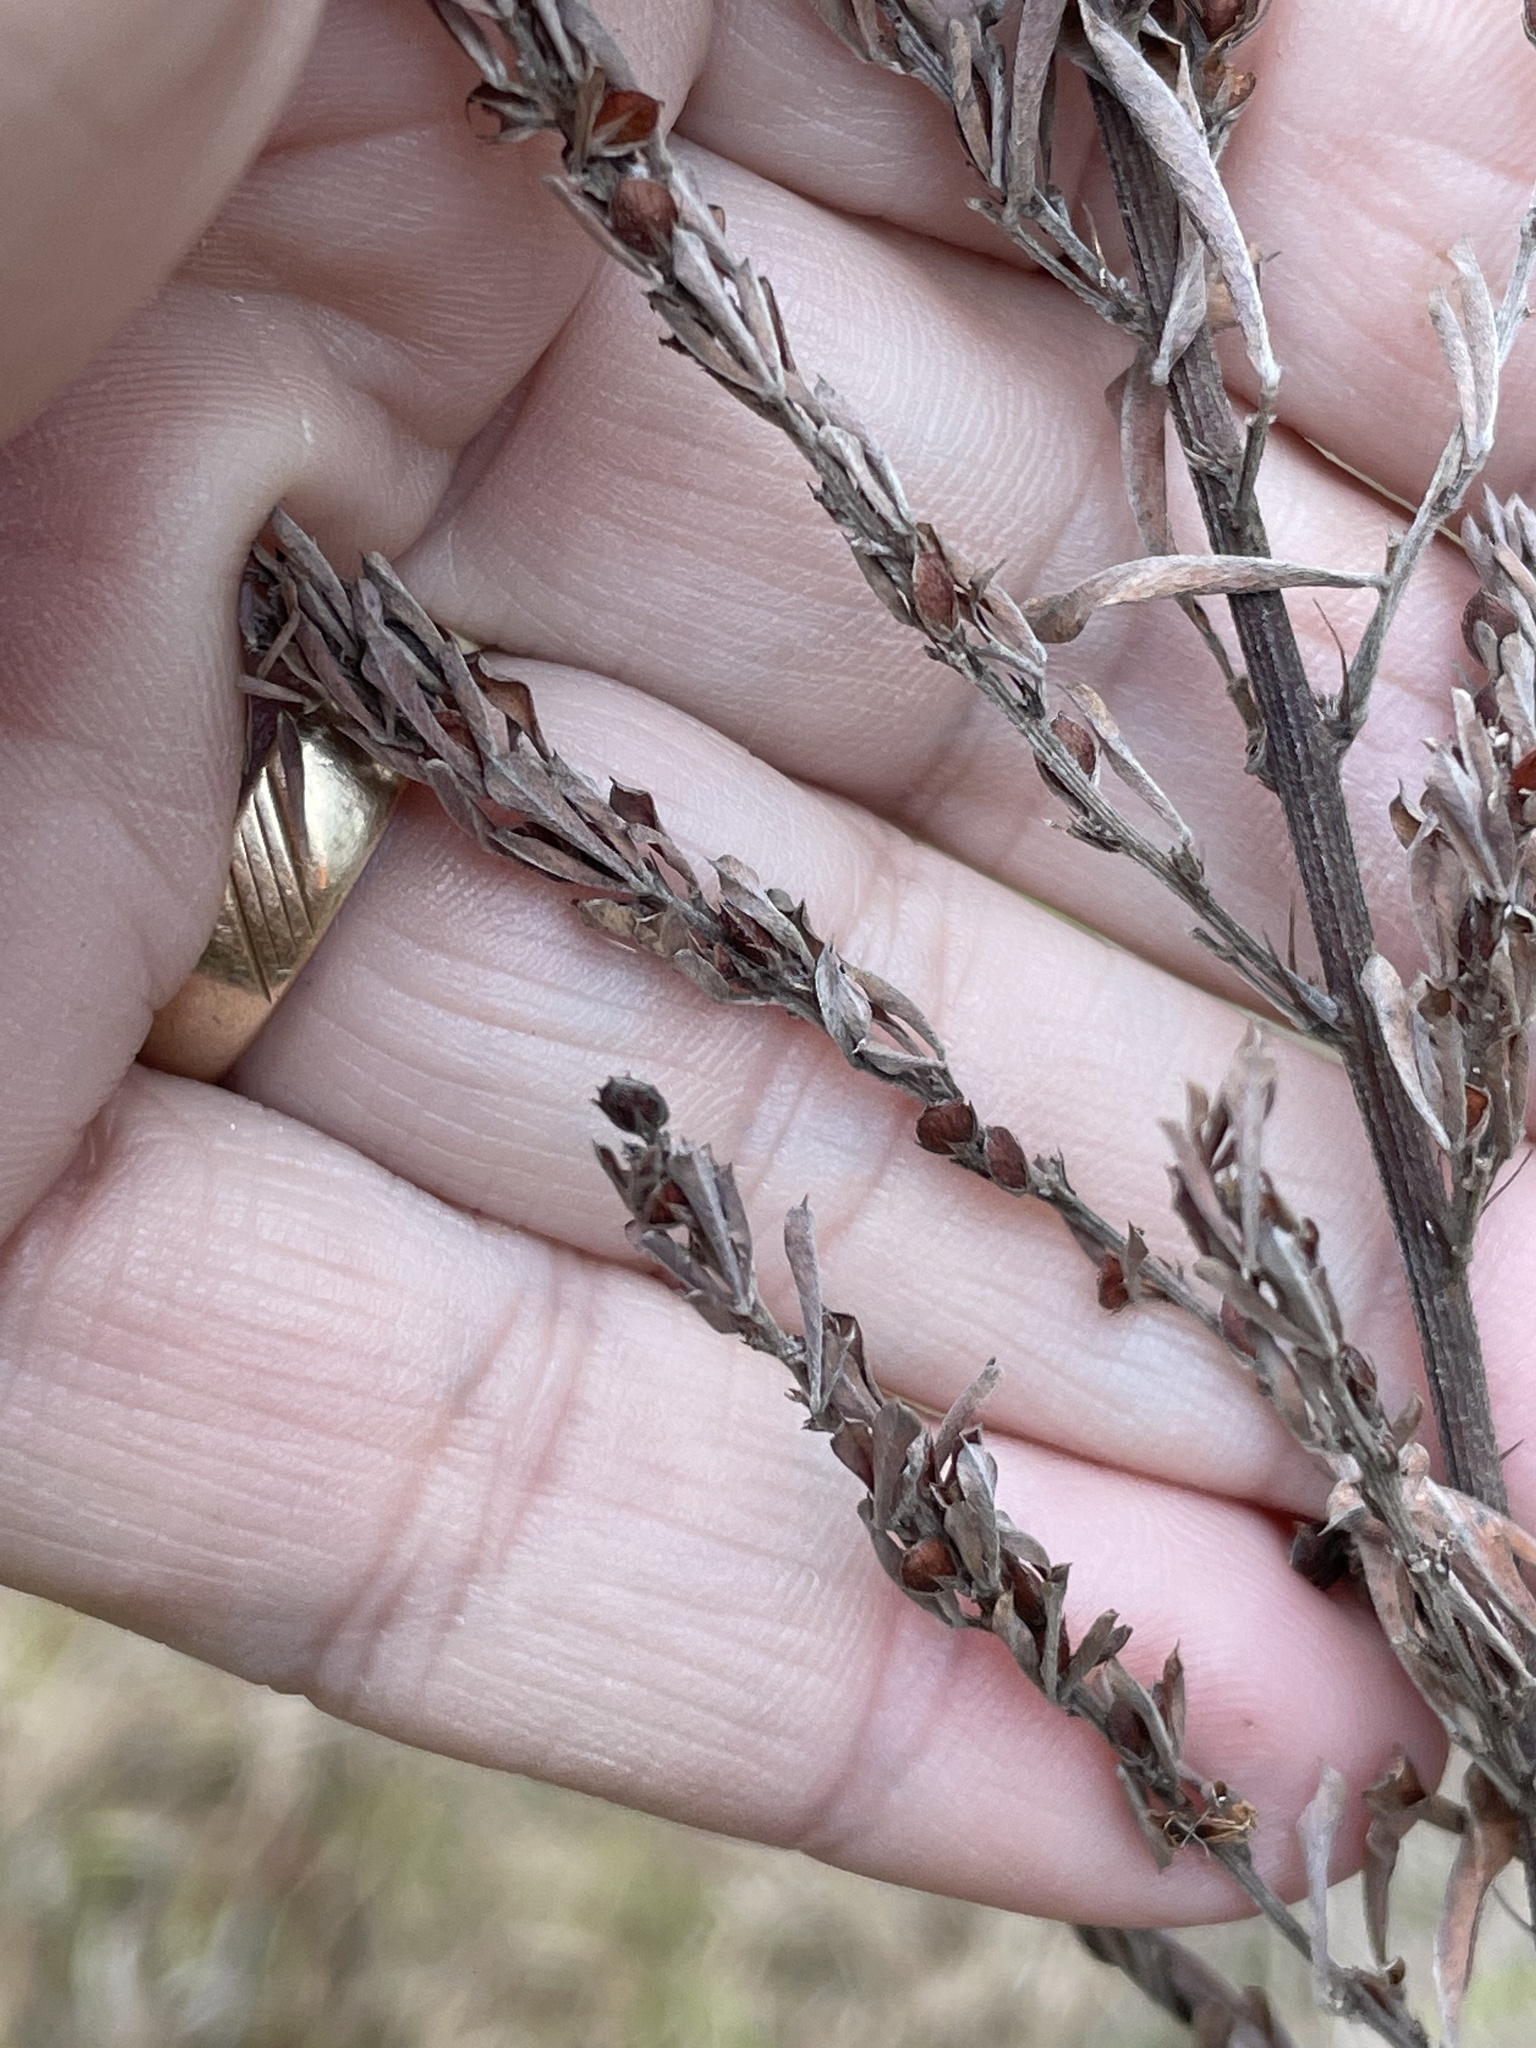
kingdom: Plantae
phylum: Tracheophyta
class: Magnoliopsida
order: Fabales
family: Fabaceae
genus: Lespedeza
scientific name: Lespedeza cuneata
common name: Chinese bush-clover
